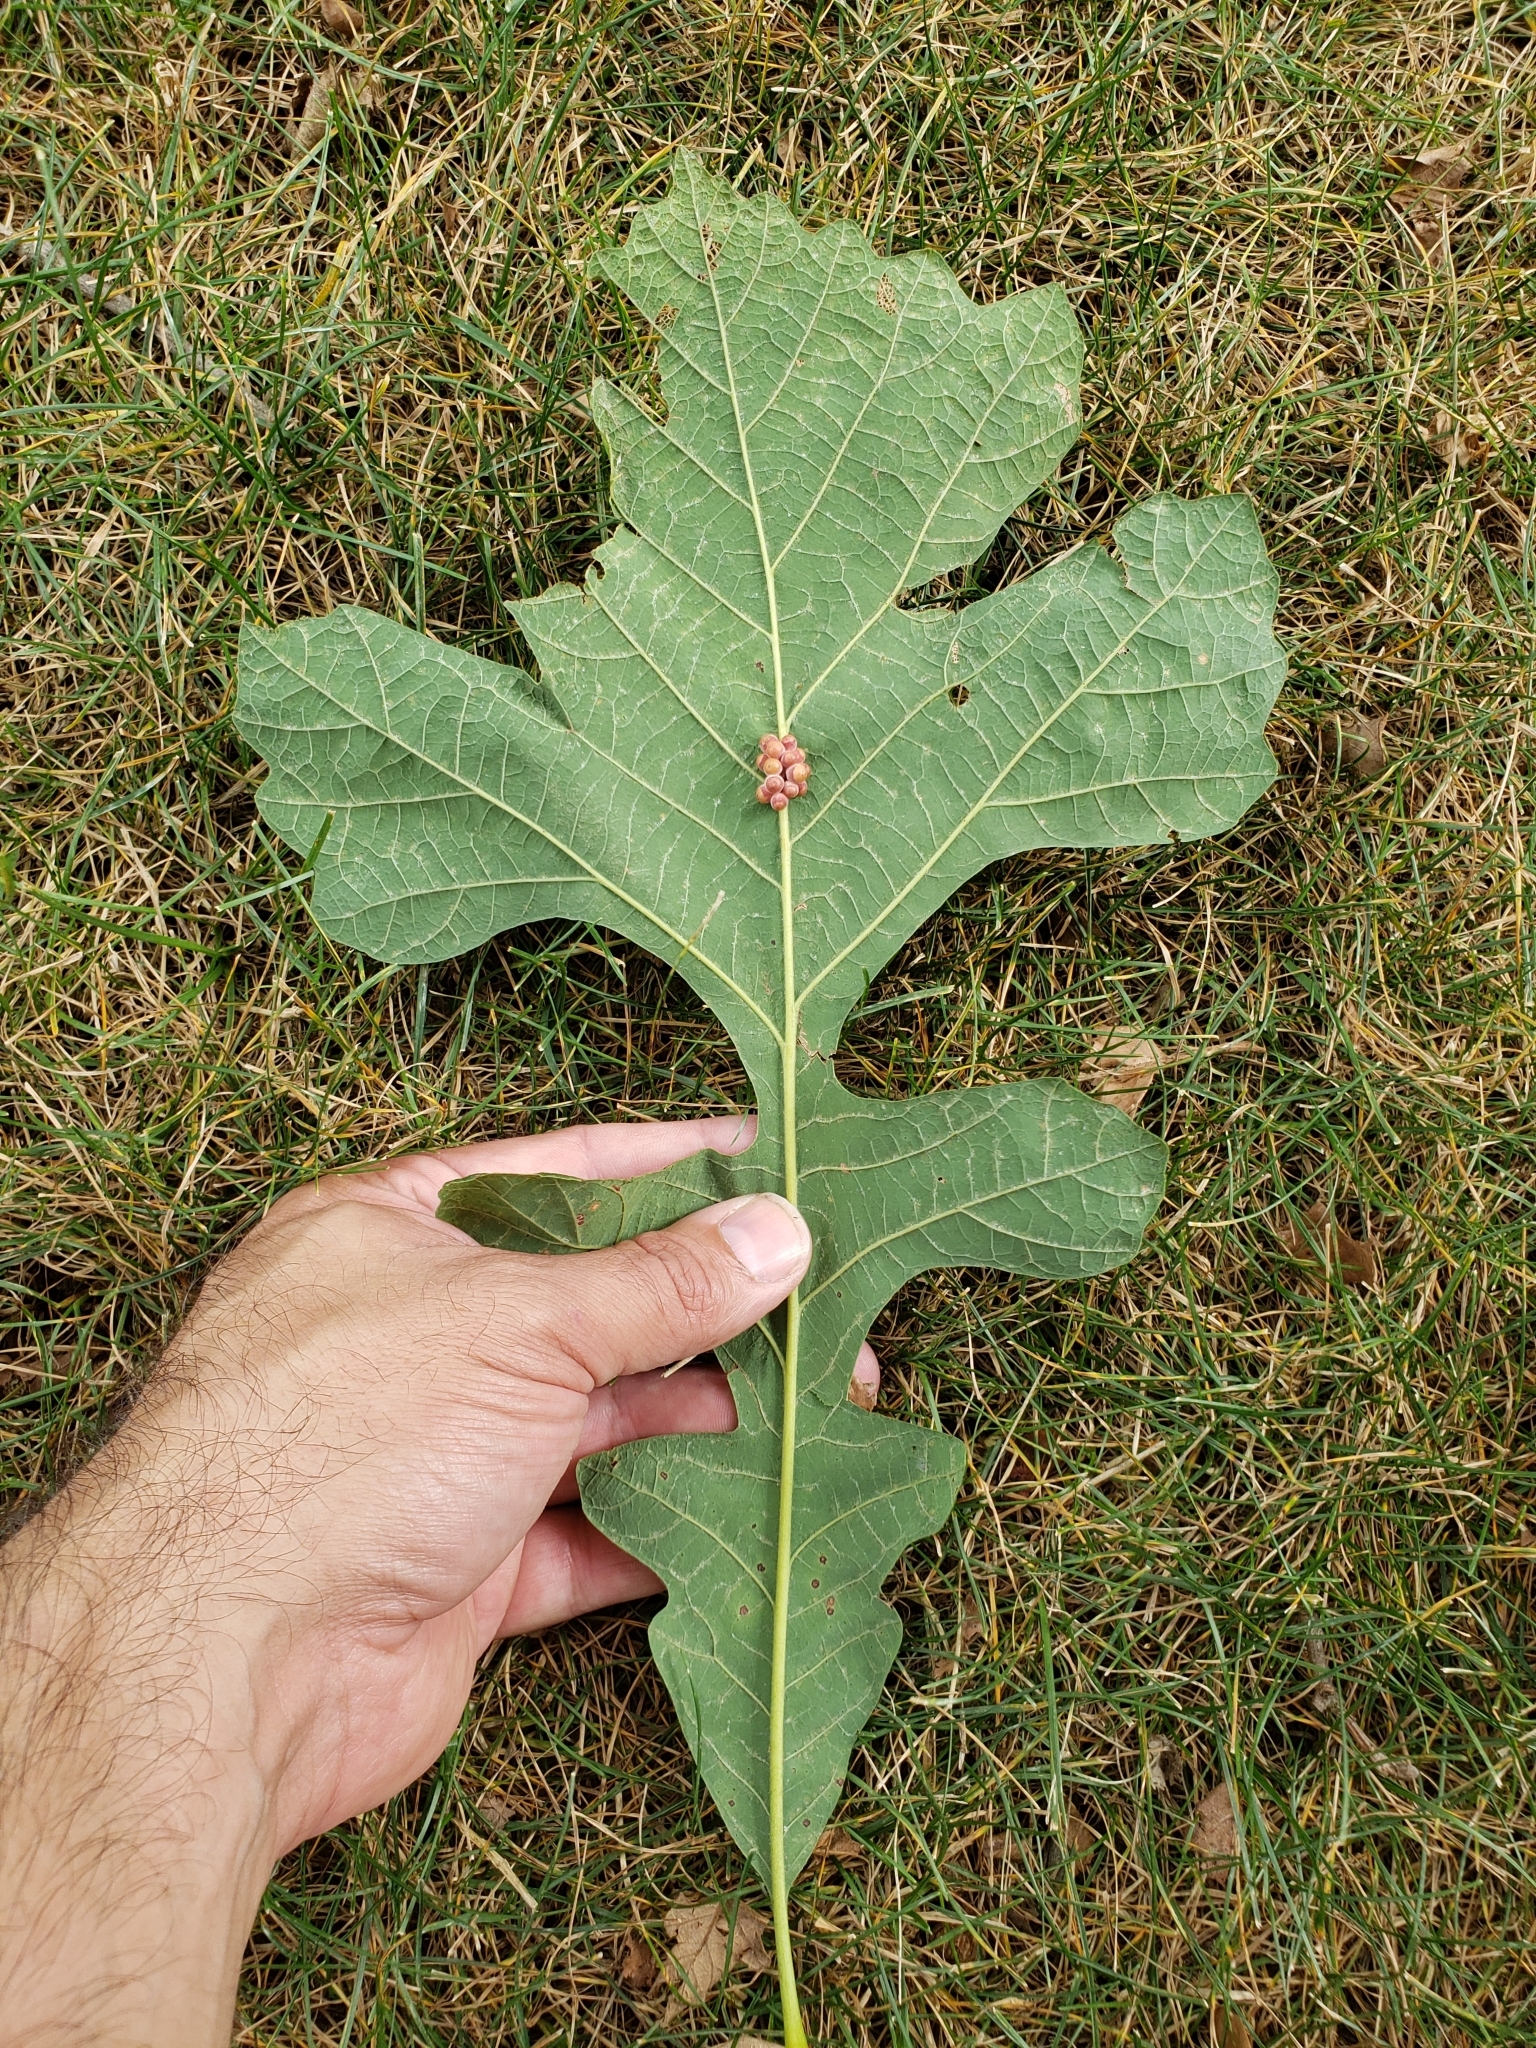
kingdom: Animalia
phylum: Arthropoda
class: Insecta
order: Hymenoptera
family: Cynipidae
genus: Andricus
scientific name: Andricus
